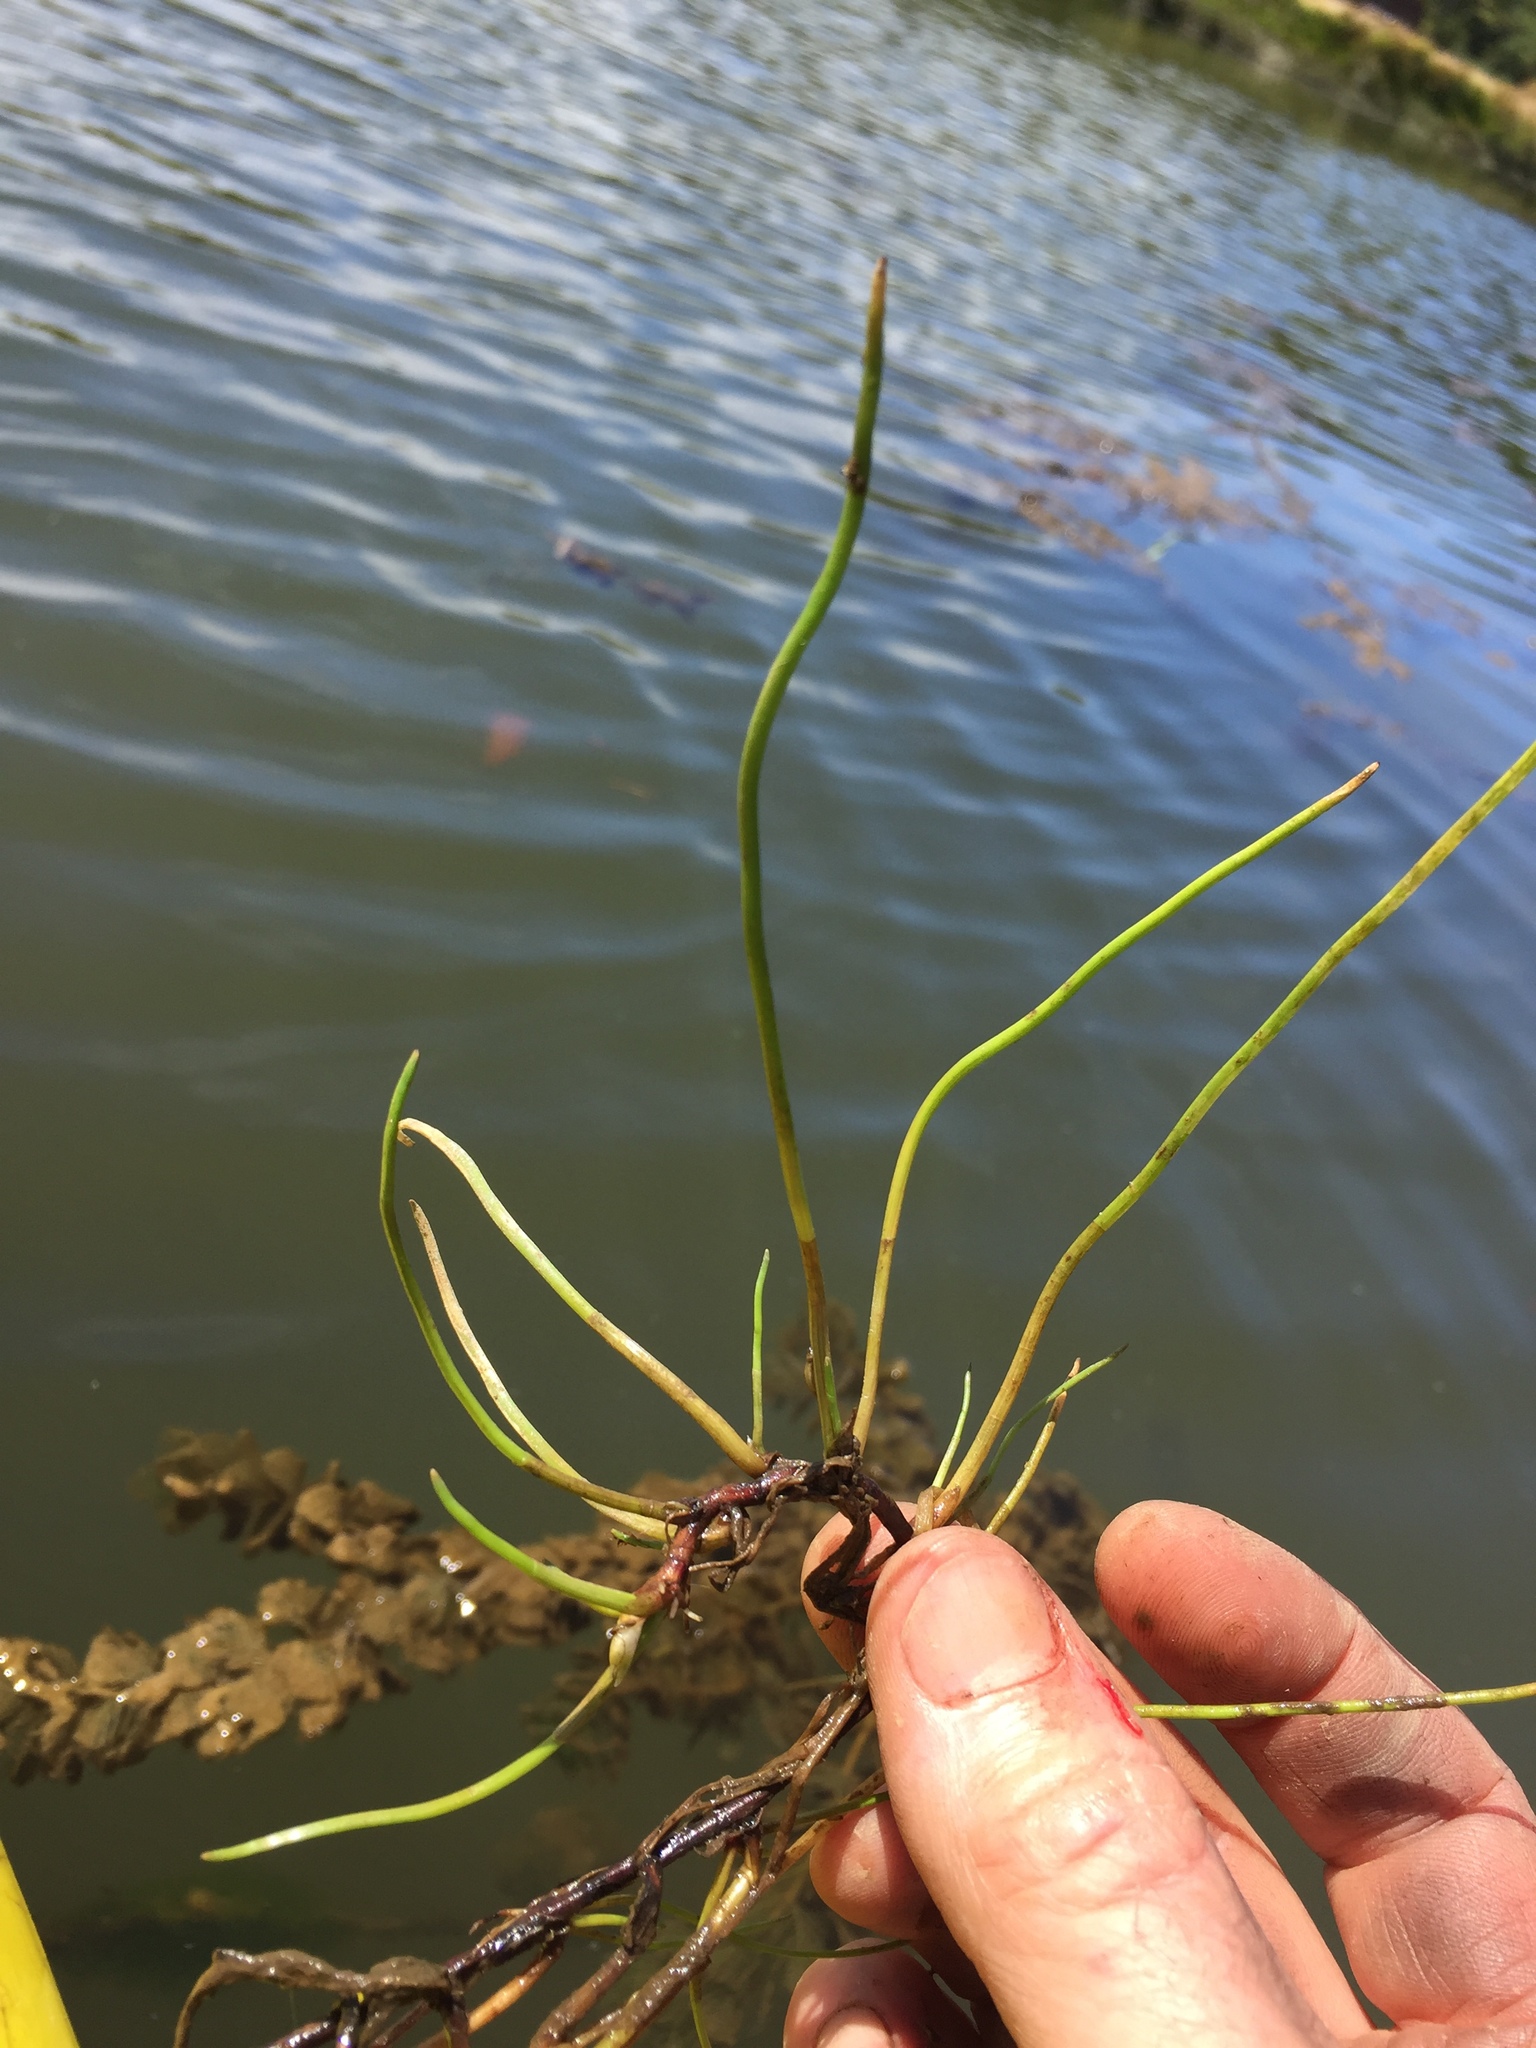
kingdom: Plantae
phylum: Tracheophyta
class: Magnoliopsida
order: Apiales
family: Apiaceae
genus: Lilaeopsis
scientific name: Lilaeopsis occidentalis
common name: Western grasswort
